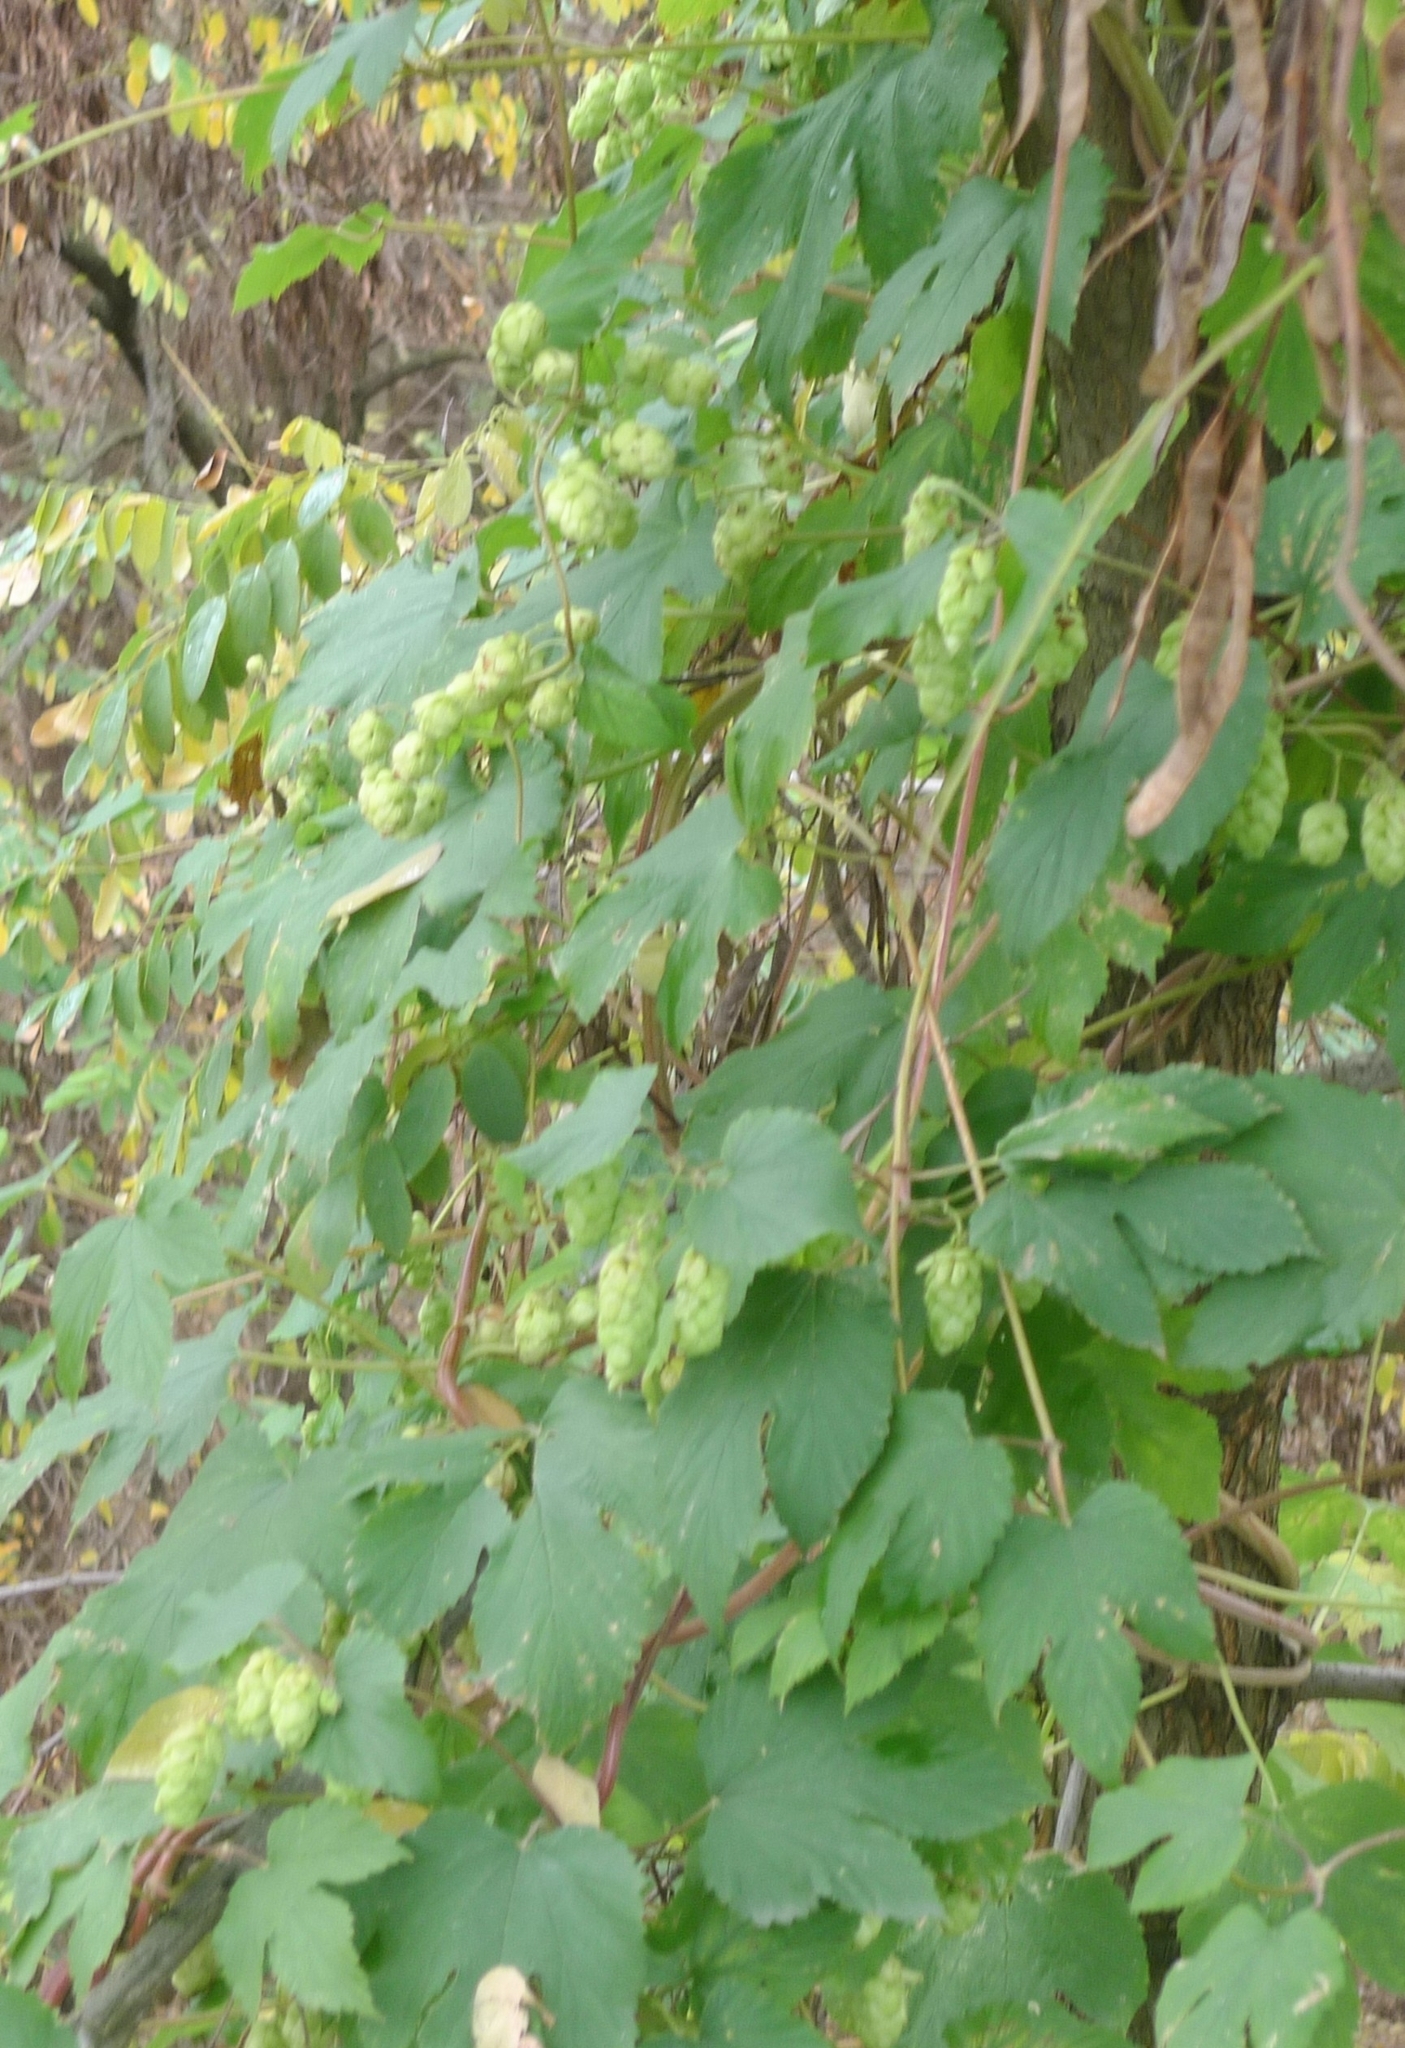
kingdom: Plantae
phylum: Tracheophyta
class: Magnoliopsida
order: Rosales
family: Cannabaceae
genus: Humulus
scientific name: Humulus lupulus
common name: Hop
